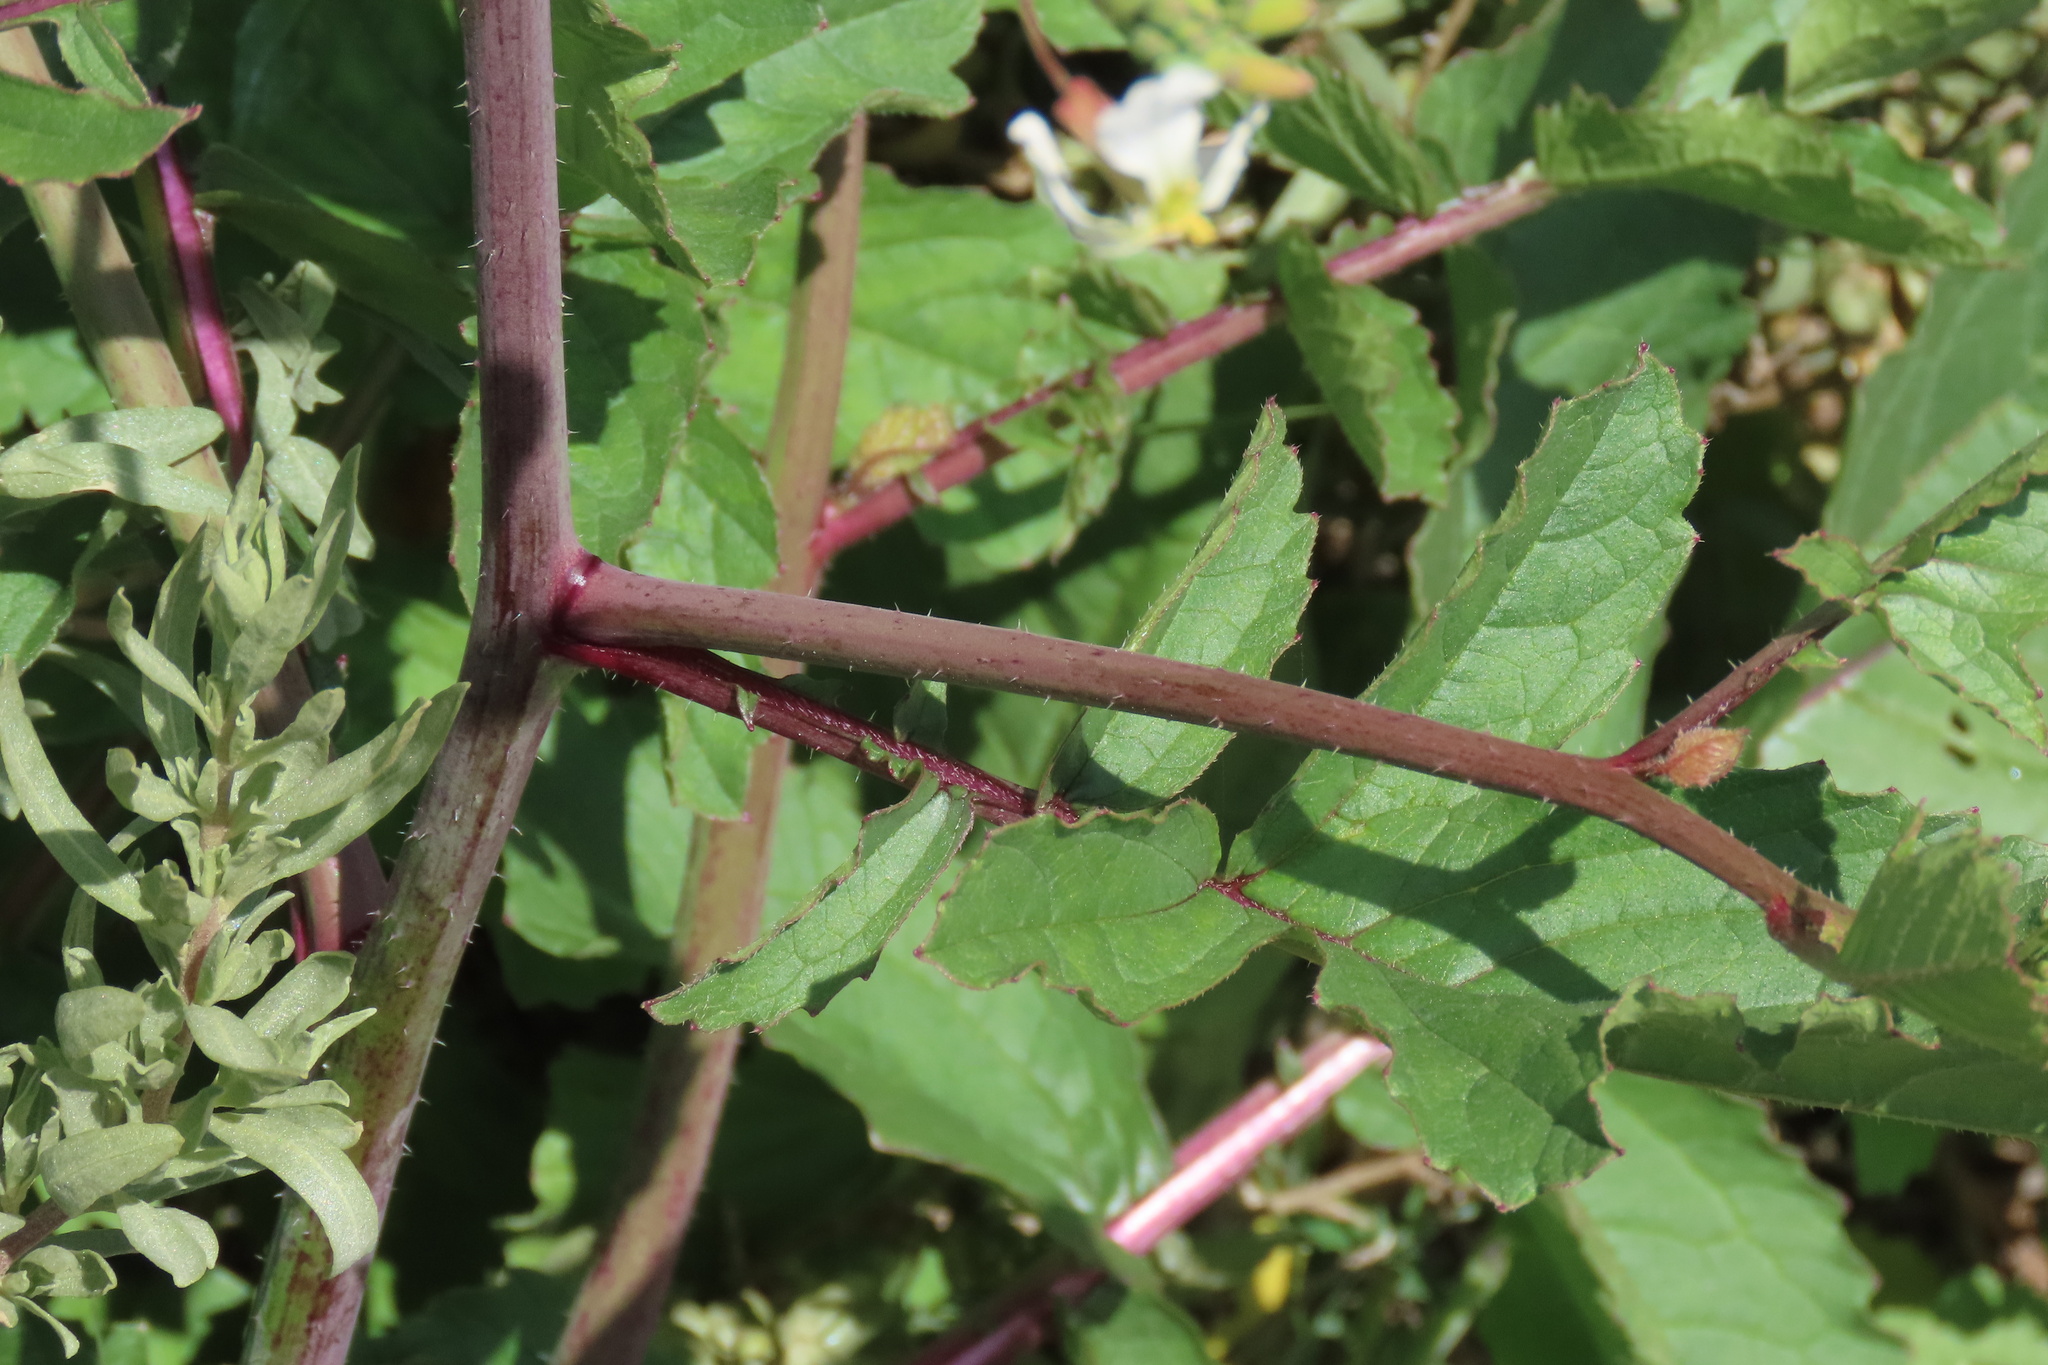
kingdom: Plantae
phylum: Tracheophyta
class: Magnoliopsida
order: Brassicales
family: Brassicaceae
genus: Raphanus
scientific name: Raphanus sativus
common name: Cultivated radish
